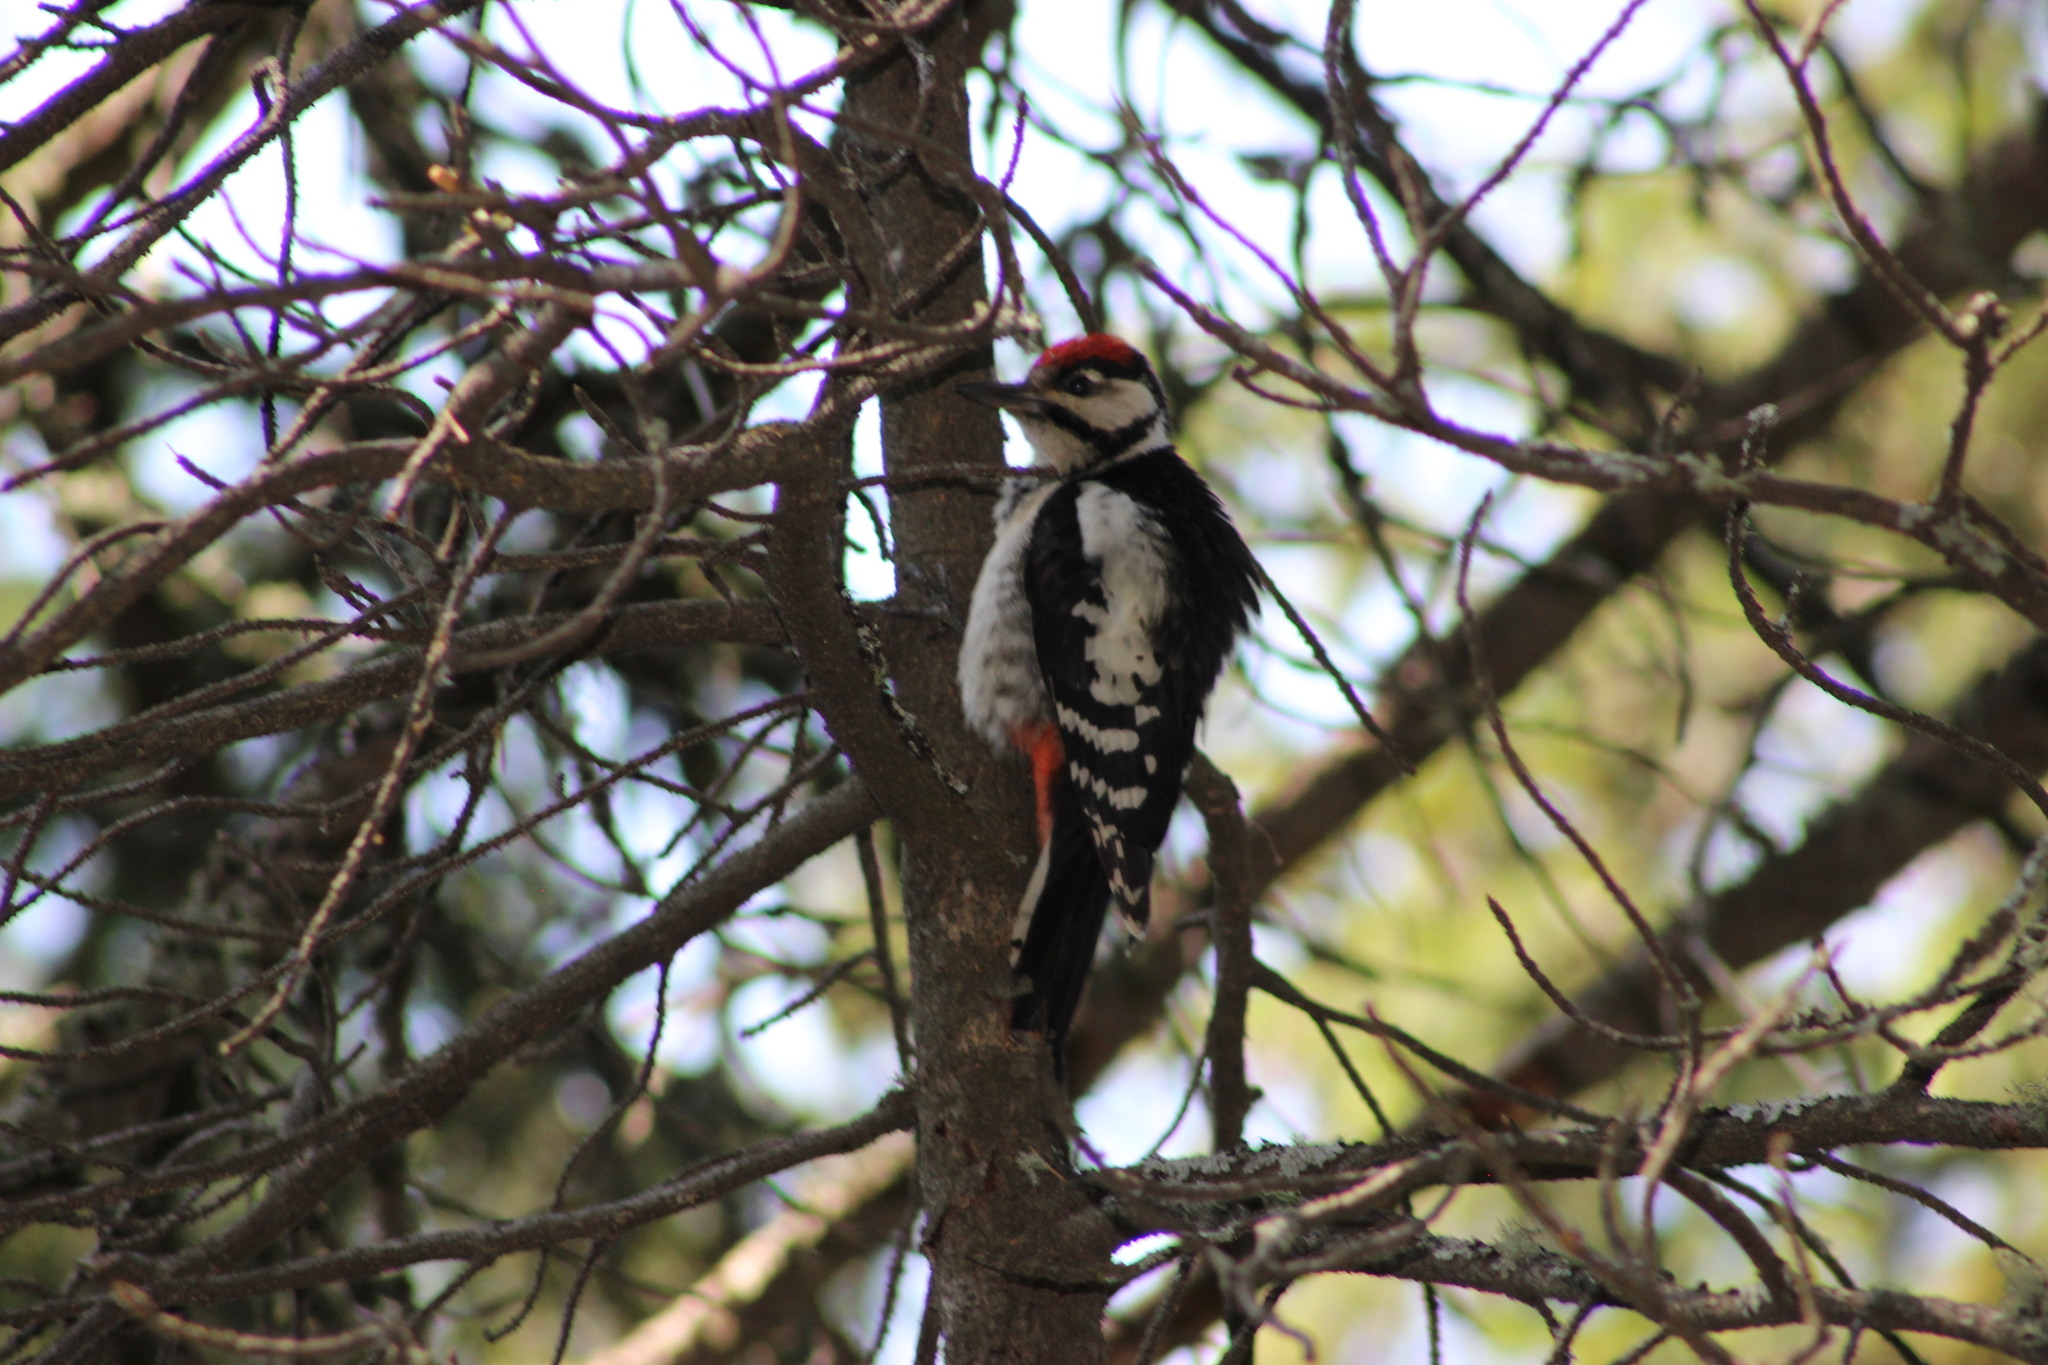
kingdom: Animalia
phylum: Chordata
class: Aves
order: Piciformes
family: Picidae
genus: Dendrocopos
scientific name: Dendrocopos major
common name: Great spotted woodpecker
